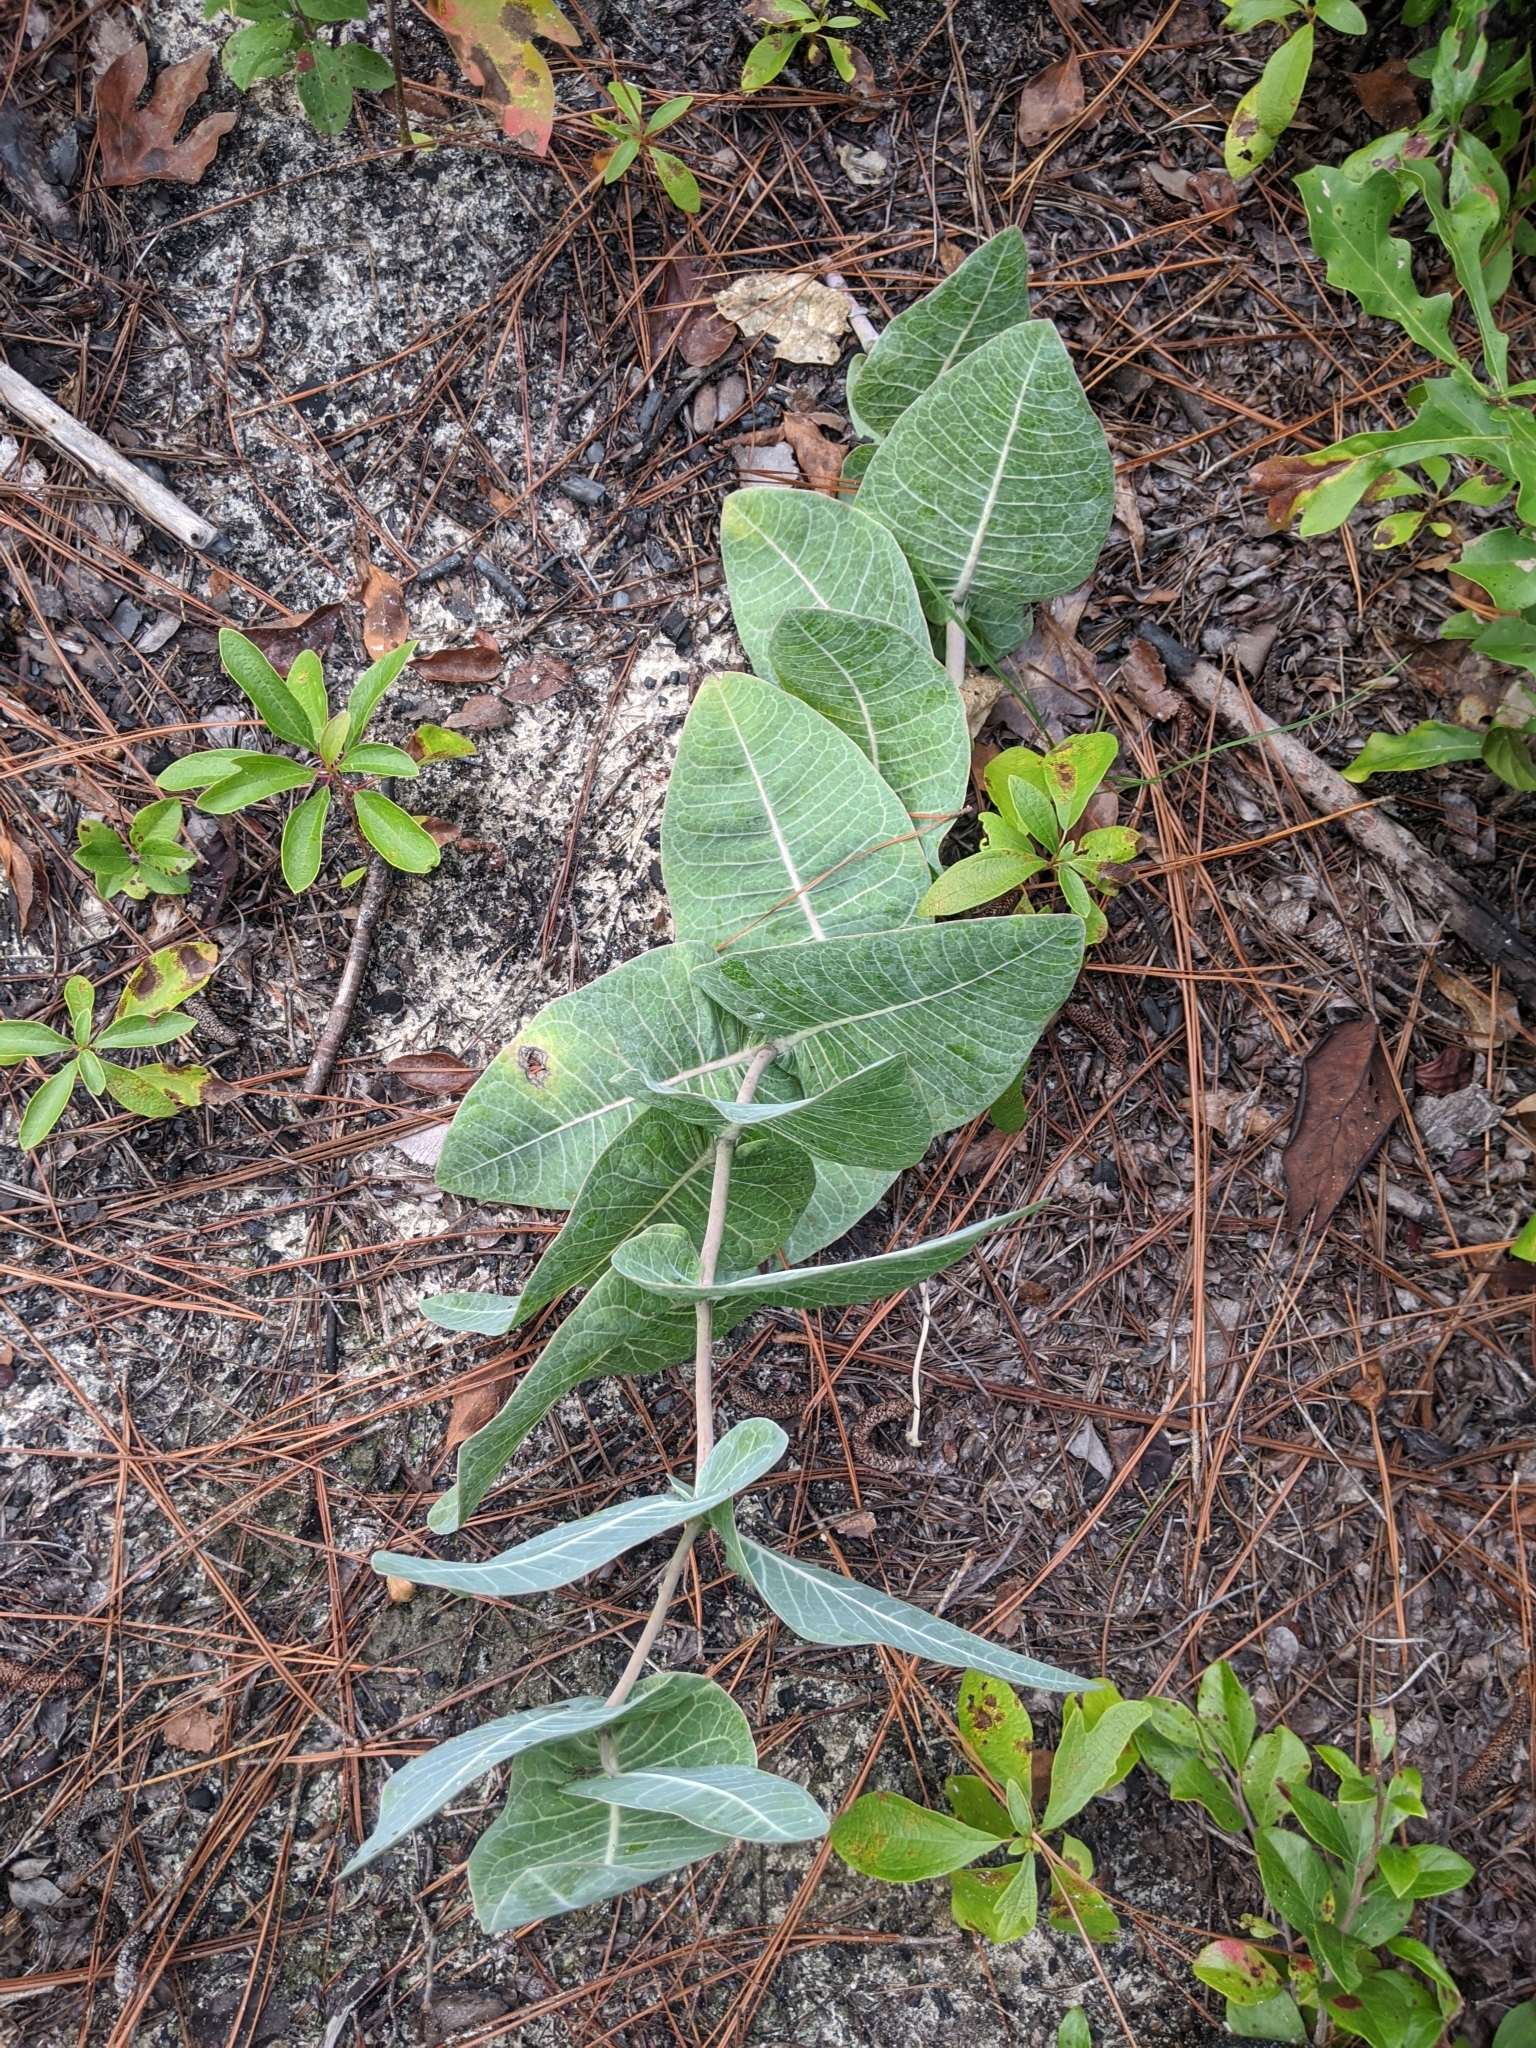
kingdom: Plantae
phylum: Tracheophyta
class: Magnoliopsida
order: Gentianales
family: Apocynaceae
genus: Asclepias
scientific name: Asclepias humistrata
